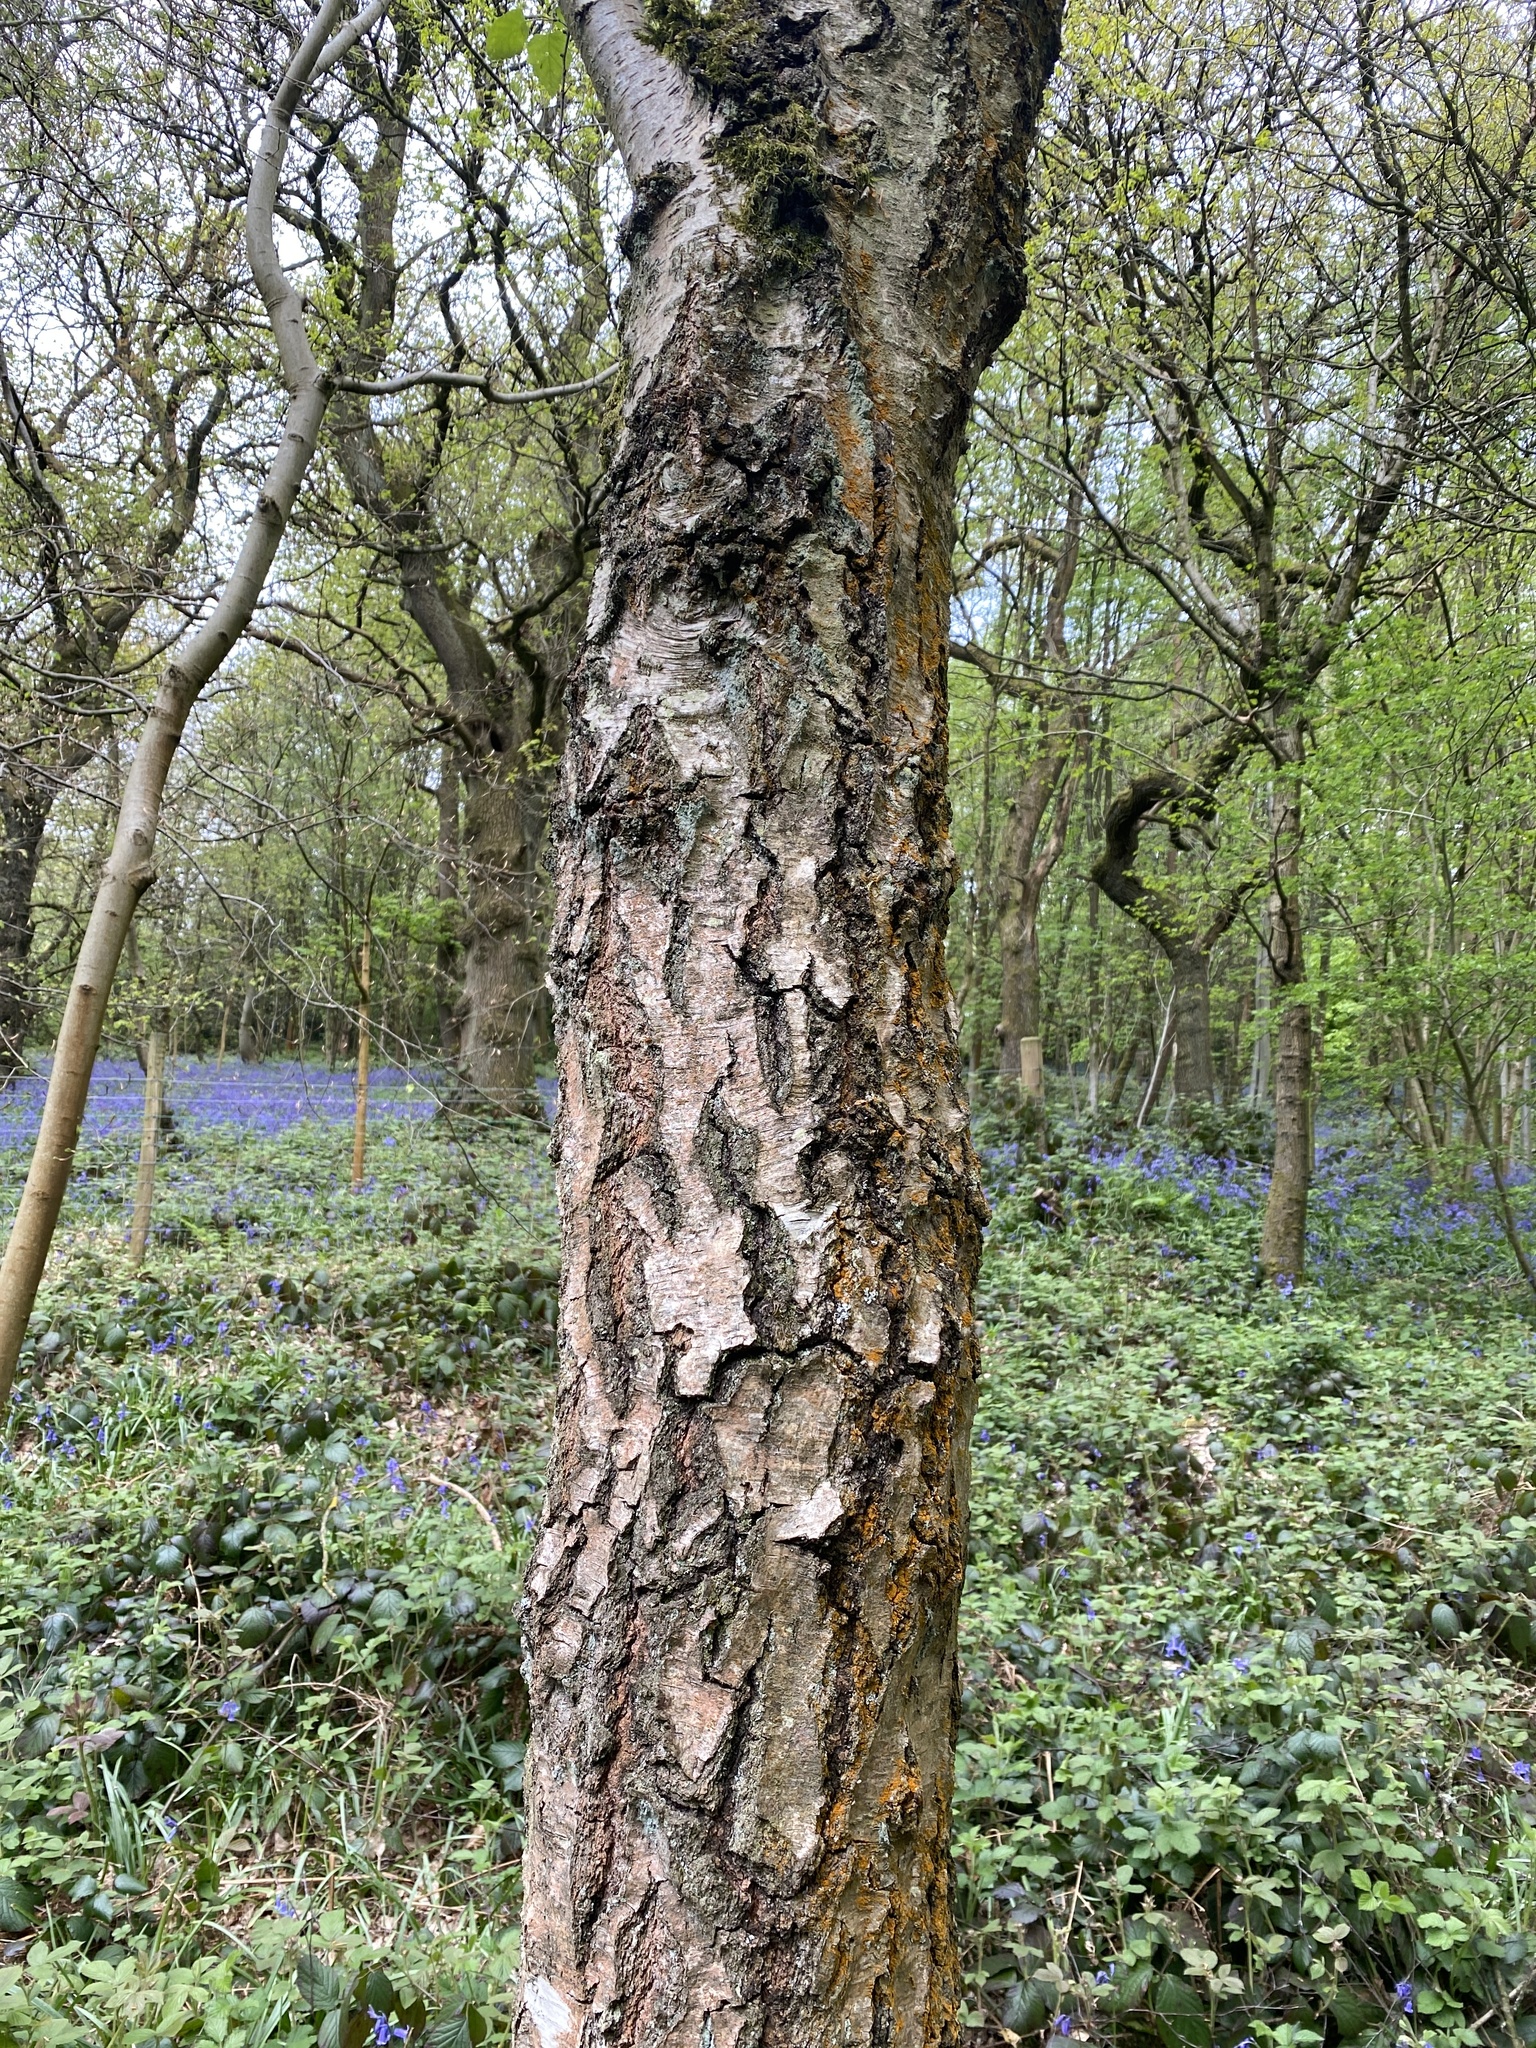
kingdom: Plantae
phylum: Tracheophyta
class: Magnoliopsida
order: Fagales
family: Betulaceae
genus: Betula
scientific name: Betula pendula
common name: Silver birch
